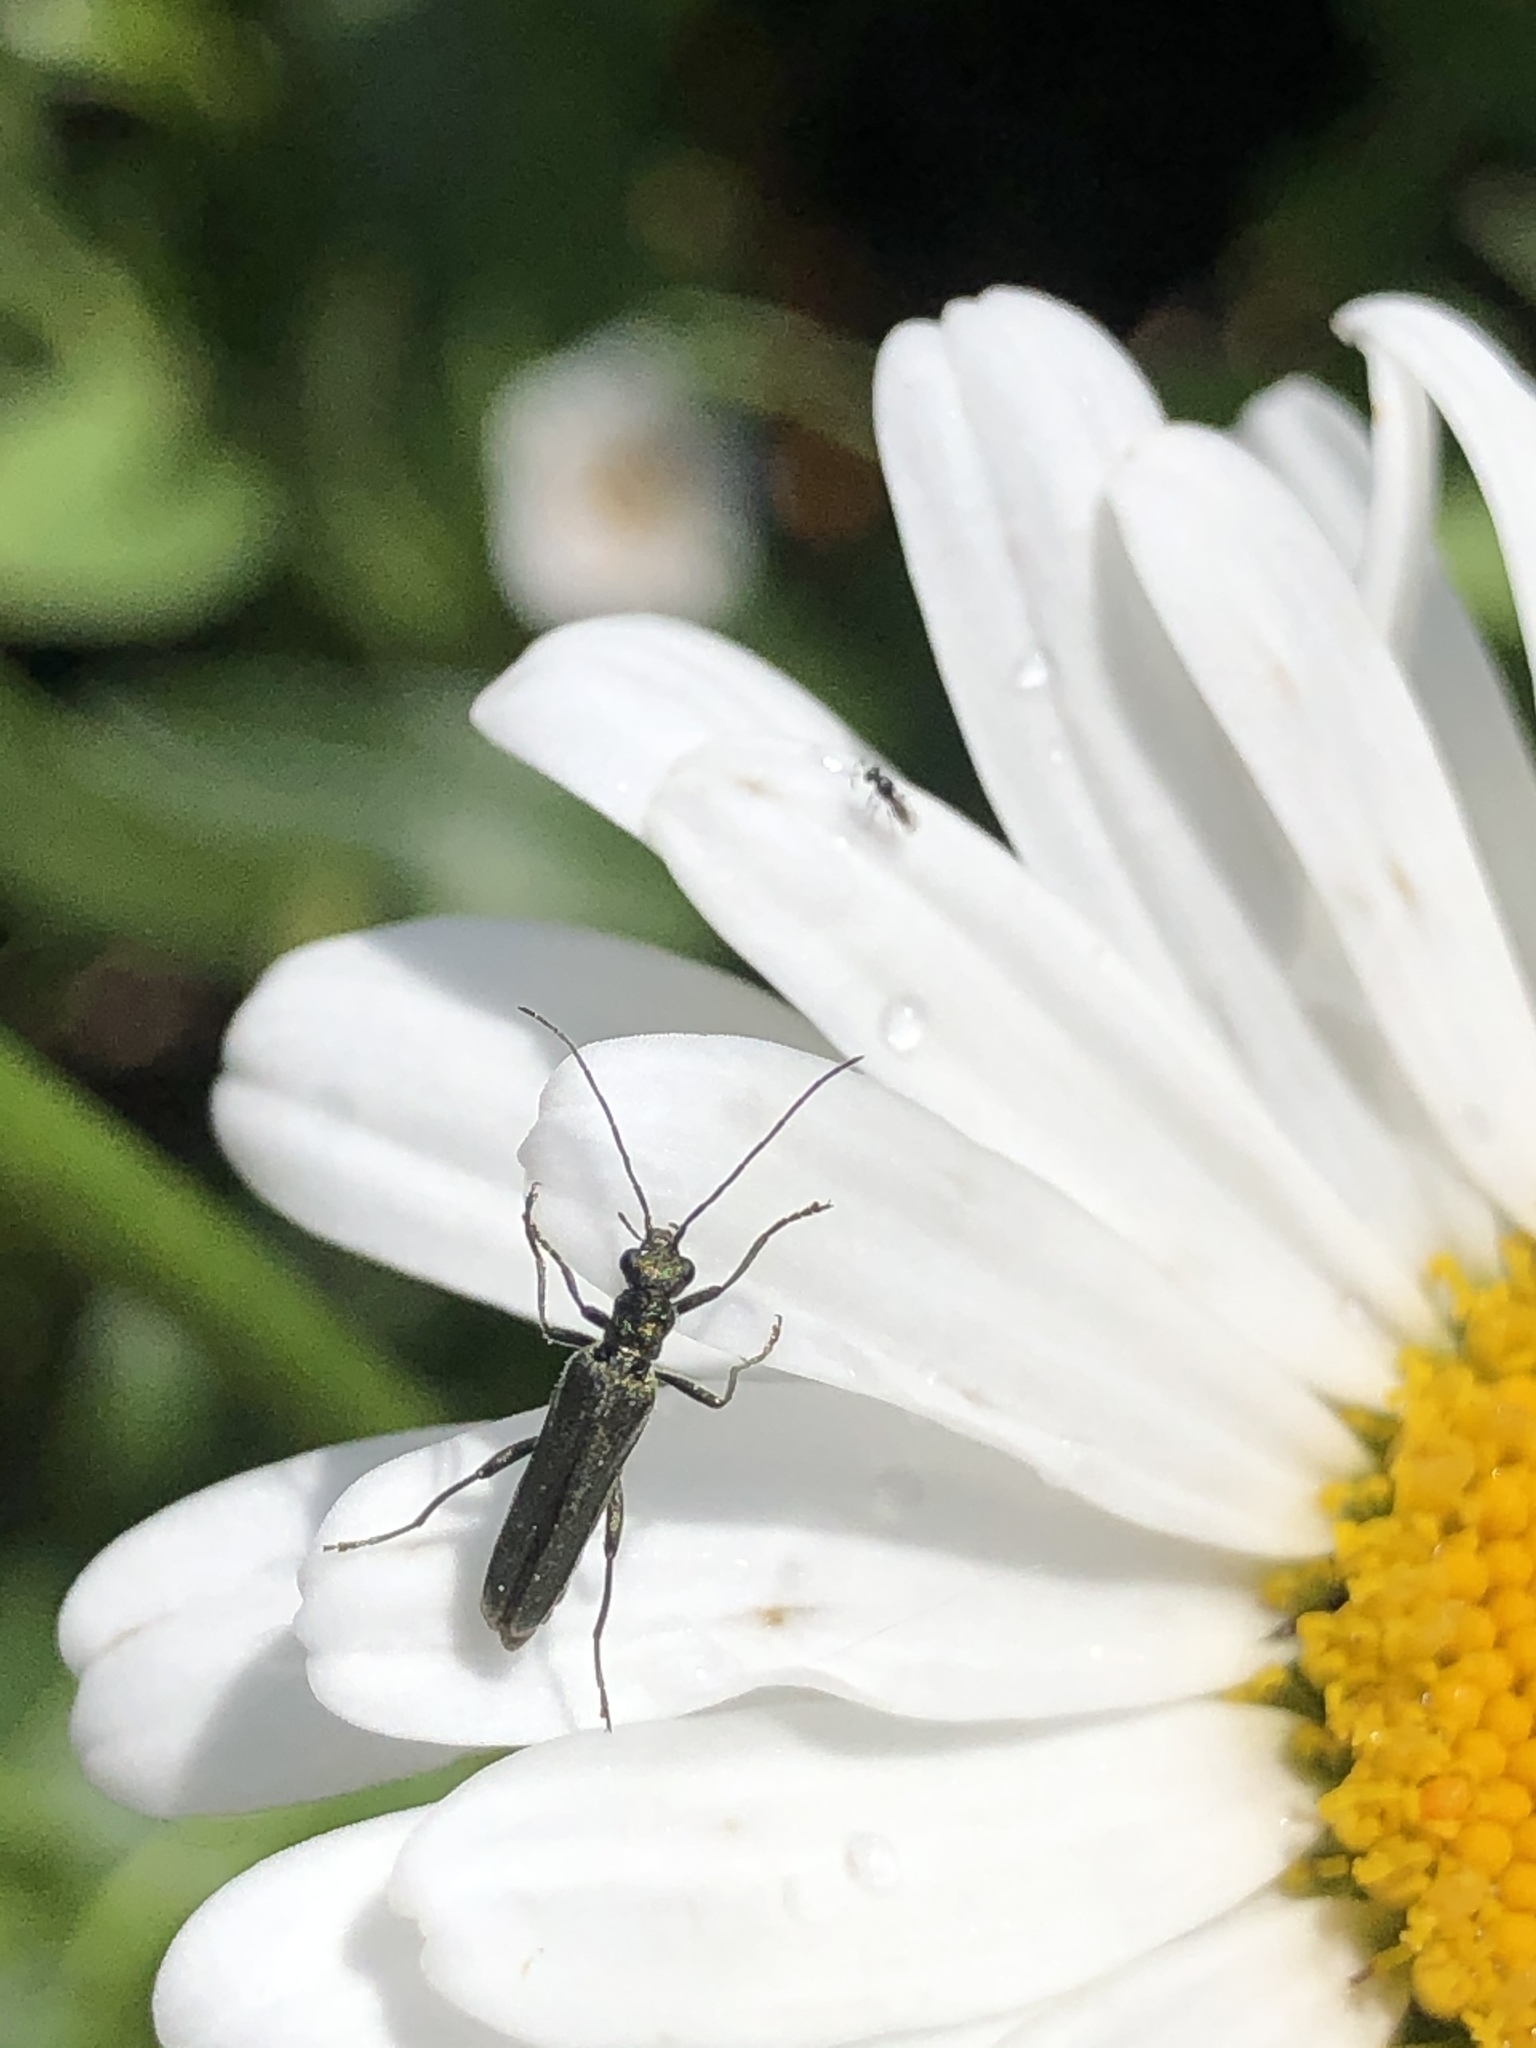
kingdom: Animalia
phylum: Arthropoda
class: Insecta
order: Coleoptera
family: Oedemeridae
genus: Oedemera
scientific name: Oedemera lurida
